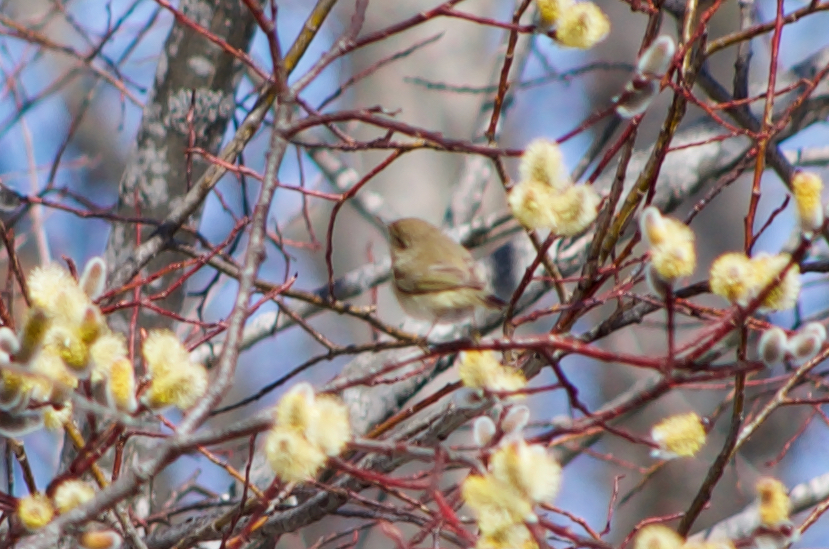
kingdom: Animalia
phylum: Chordata
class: Aves
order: Passeriformes
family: Phylloscopidae
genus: Phylloscopus
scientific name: Phylloscopus trochilus
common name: Willow warbler
